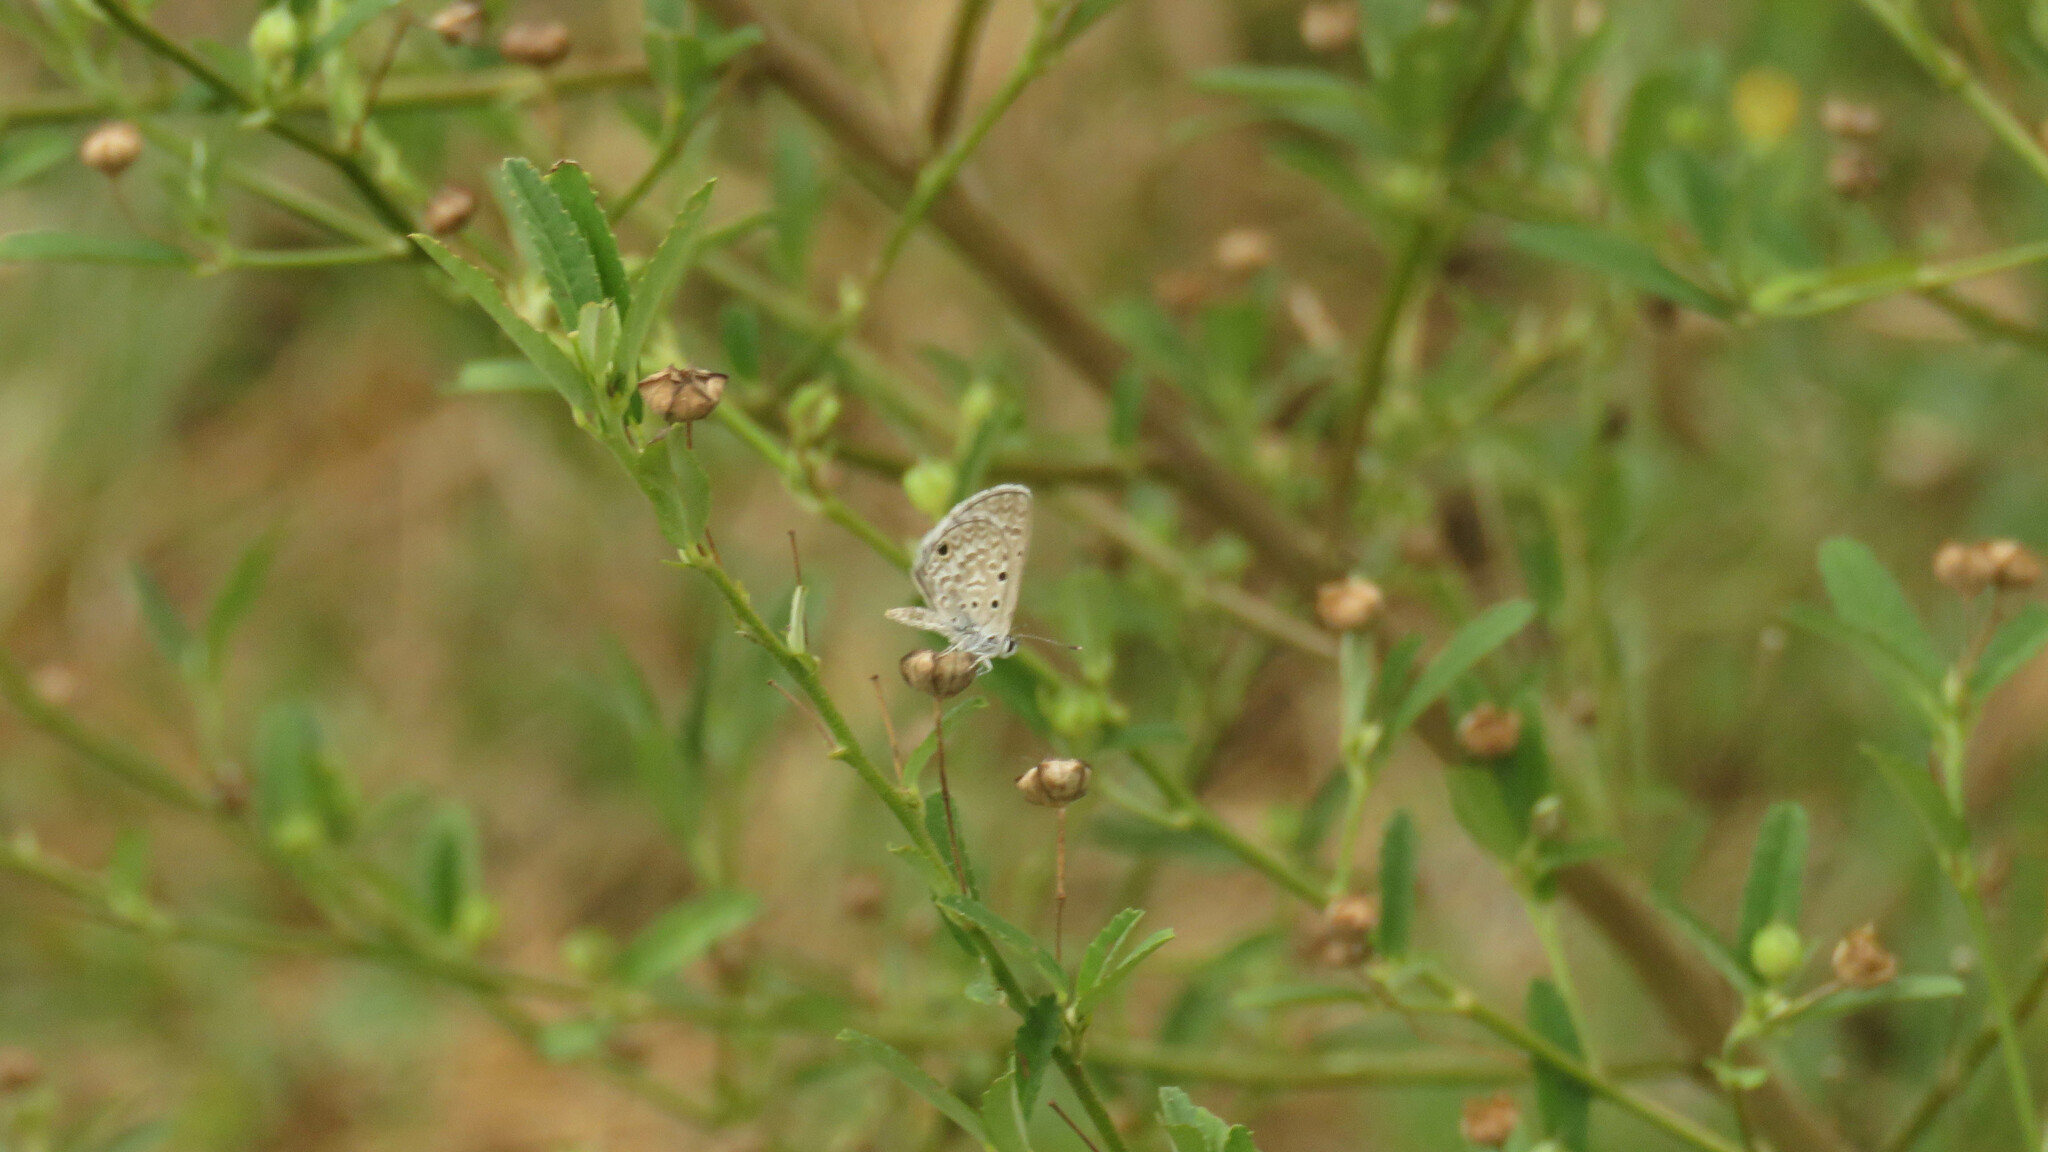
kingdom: Animalia
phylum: Arthropoda
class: Insecta
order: Lepidoptera
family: Lycaenidae
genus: Hemiargus
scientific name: Hemiargus hanno
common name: Common blue
